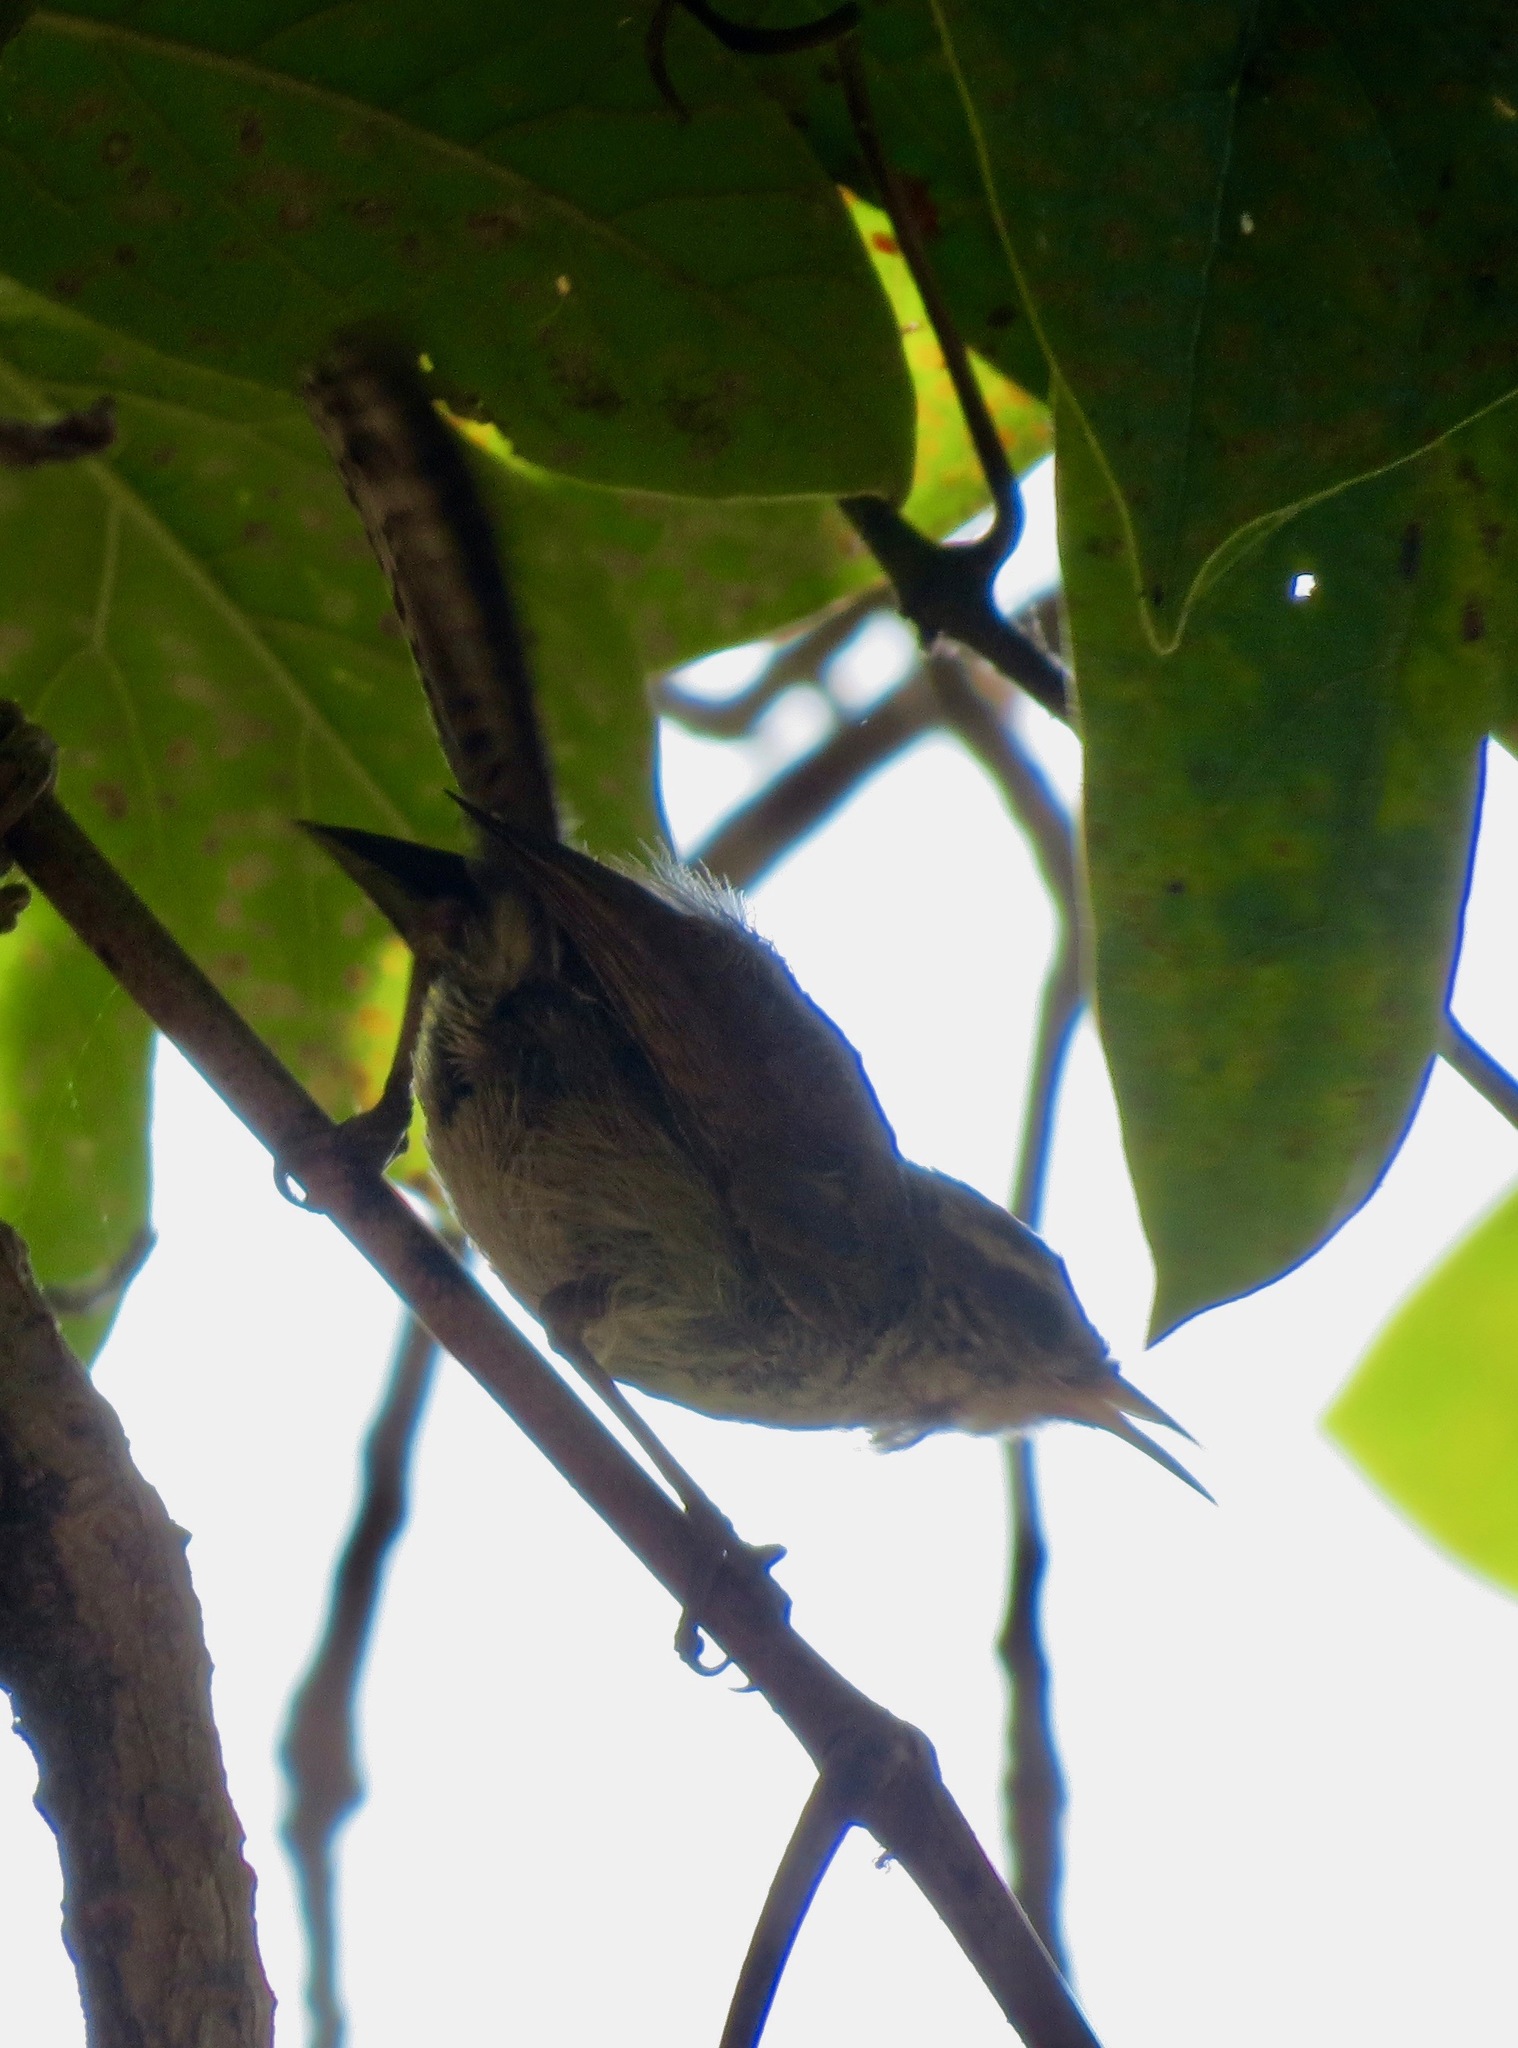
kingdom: Animalia
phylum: Chordata
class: Aves
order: Passeriformes
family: Troglodytidae
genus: Thryomanes
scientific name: Thryomanes bewickii
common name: Bewick's wren
